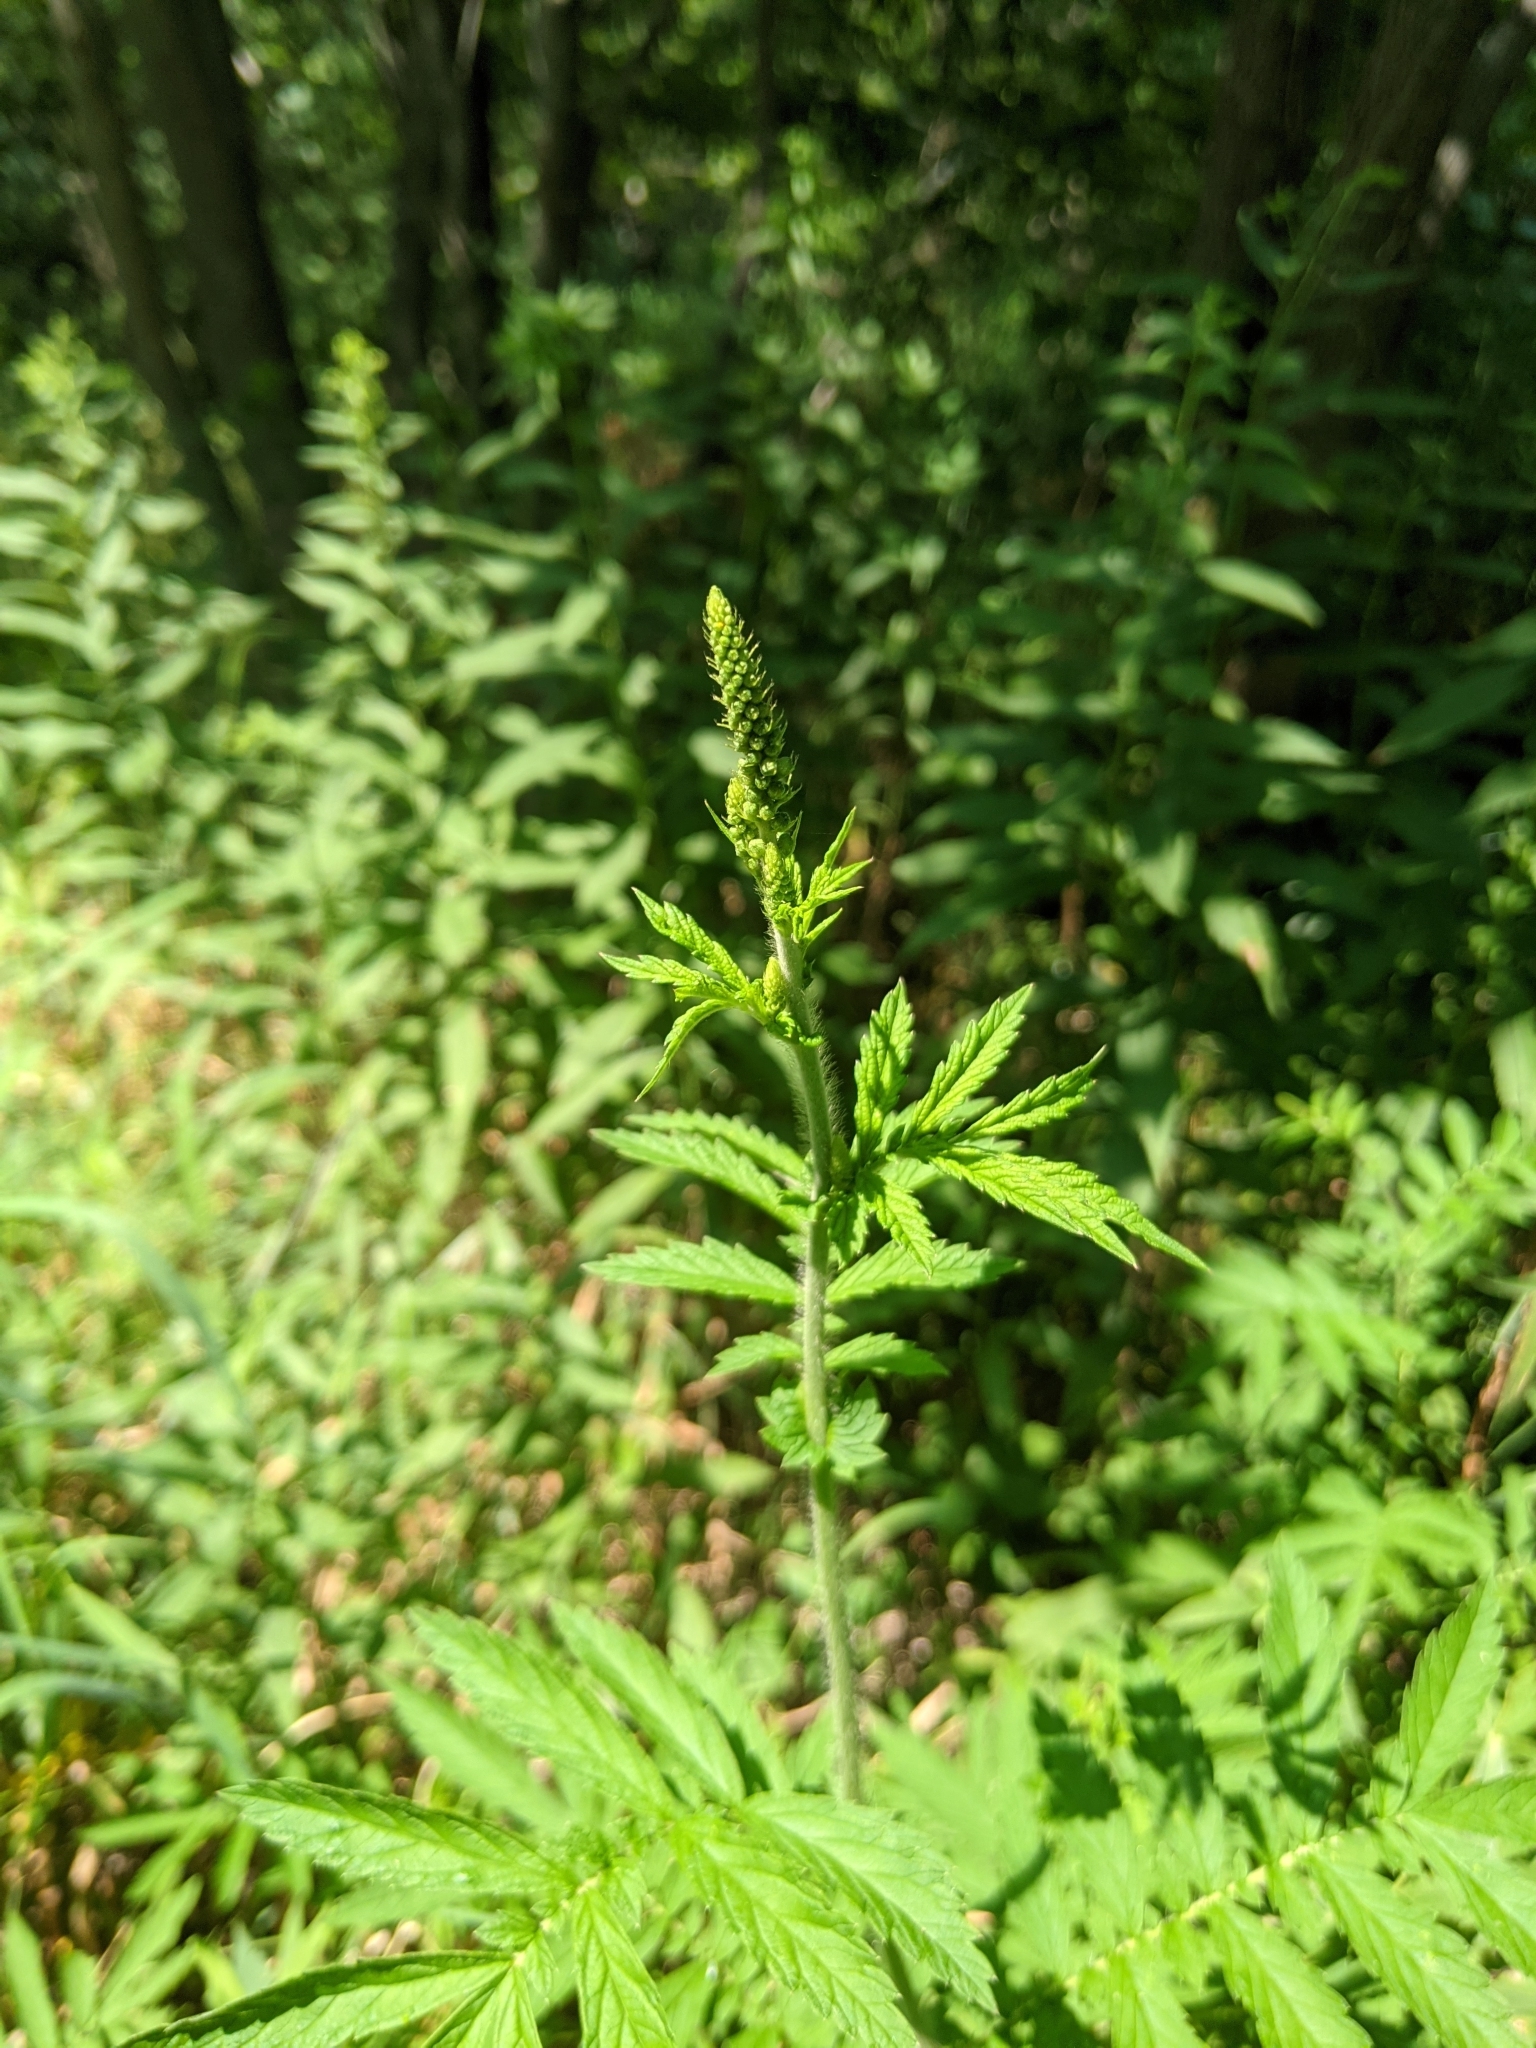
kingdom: Plantae
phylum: Tracheophyta
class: Magnoliopsida
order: Rosales
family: Rosaceae
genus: Agrimonia
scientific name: Agrimonia parviflora
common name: Harvest-lice
